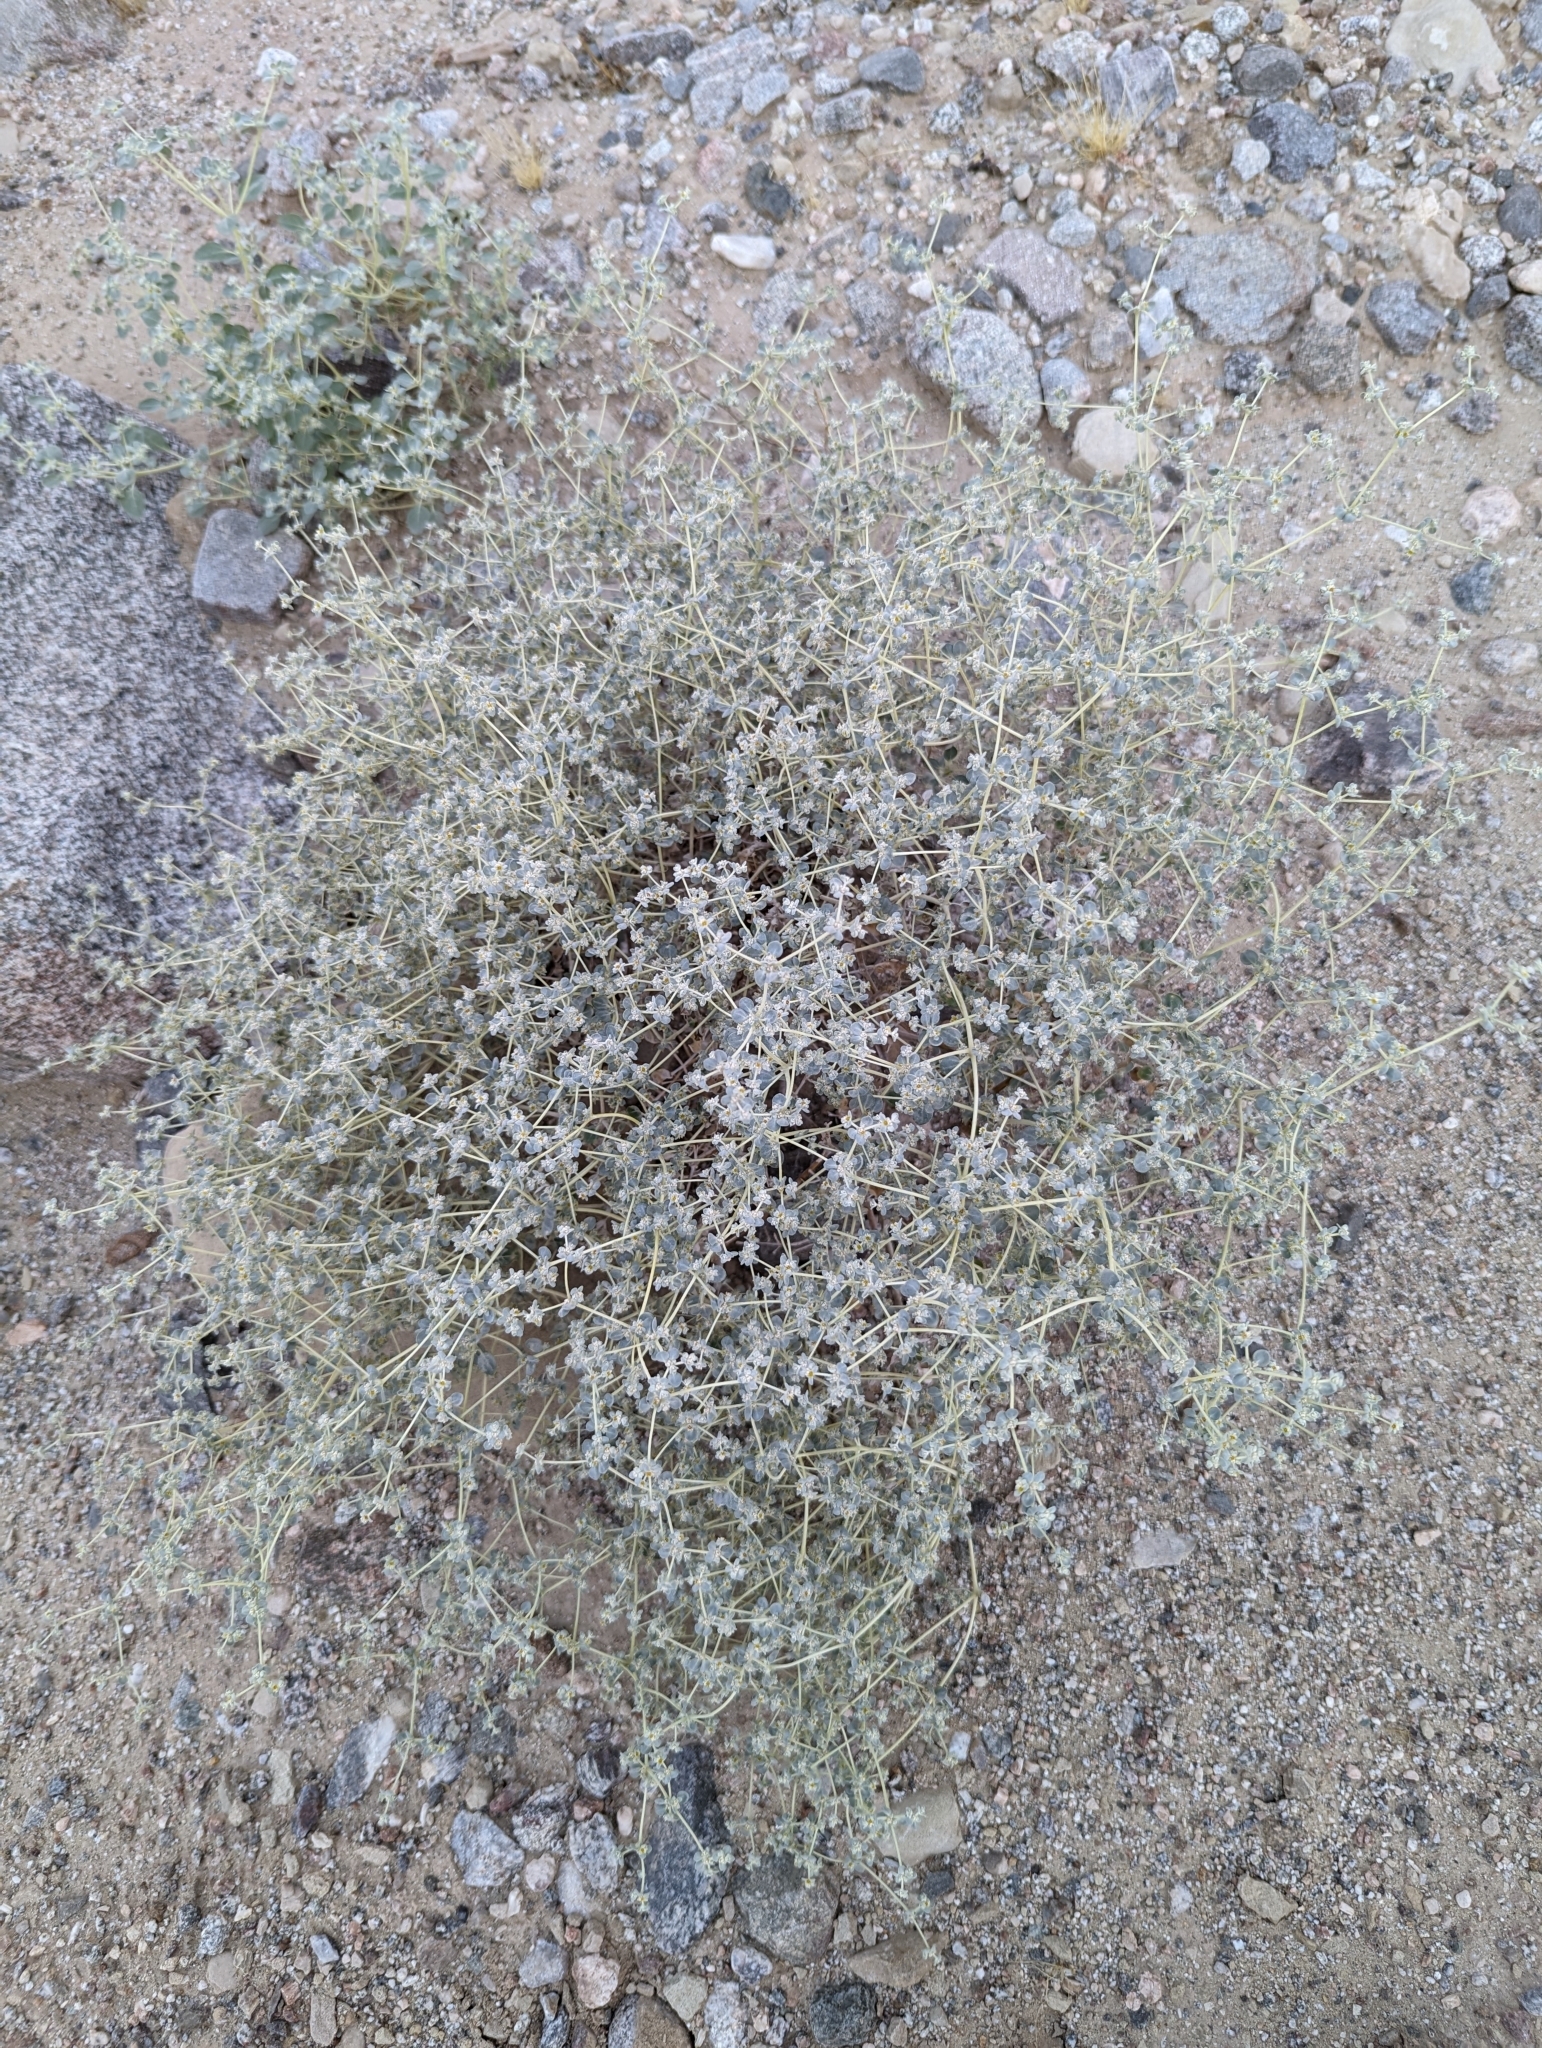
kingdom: Plantae
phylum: Tracheophyta
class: Magnoliopsida
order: Caryophyllales
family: Amaranthaceae
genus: Tidestromia
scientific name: Tidestromia suffruticosa
